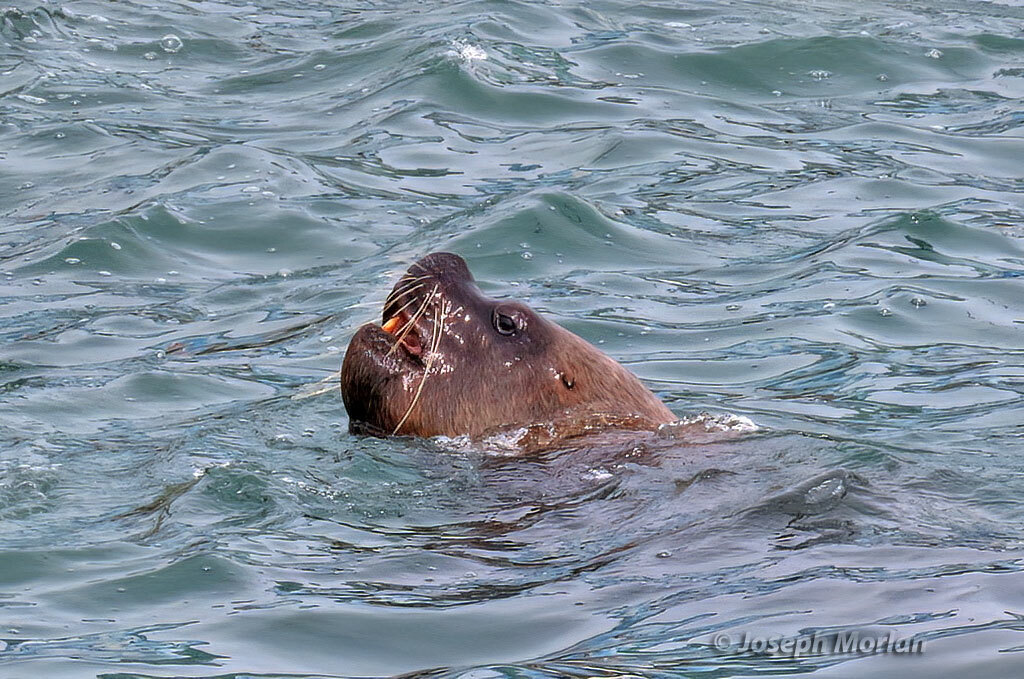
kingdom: Animalia
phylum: Chordata
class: Mammalia
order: Carnivora
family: Otariidae
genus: Otaria
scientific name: Otaria byronia
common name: South american sea lion
